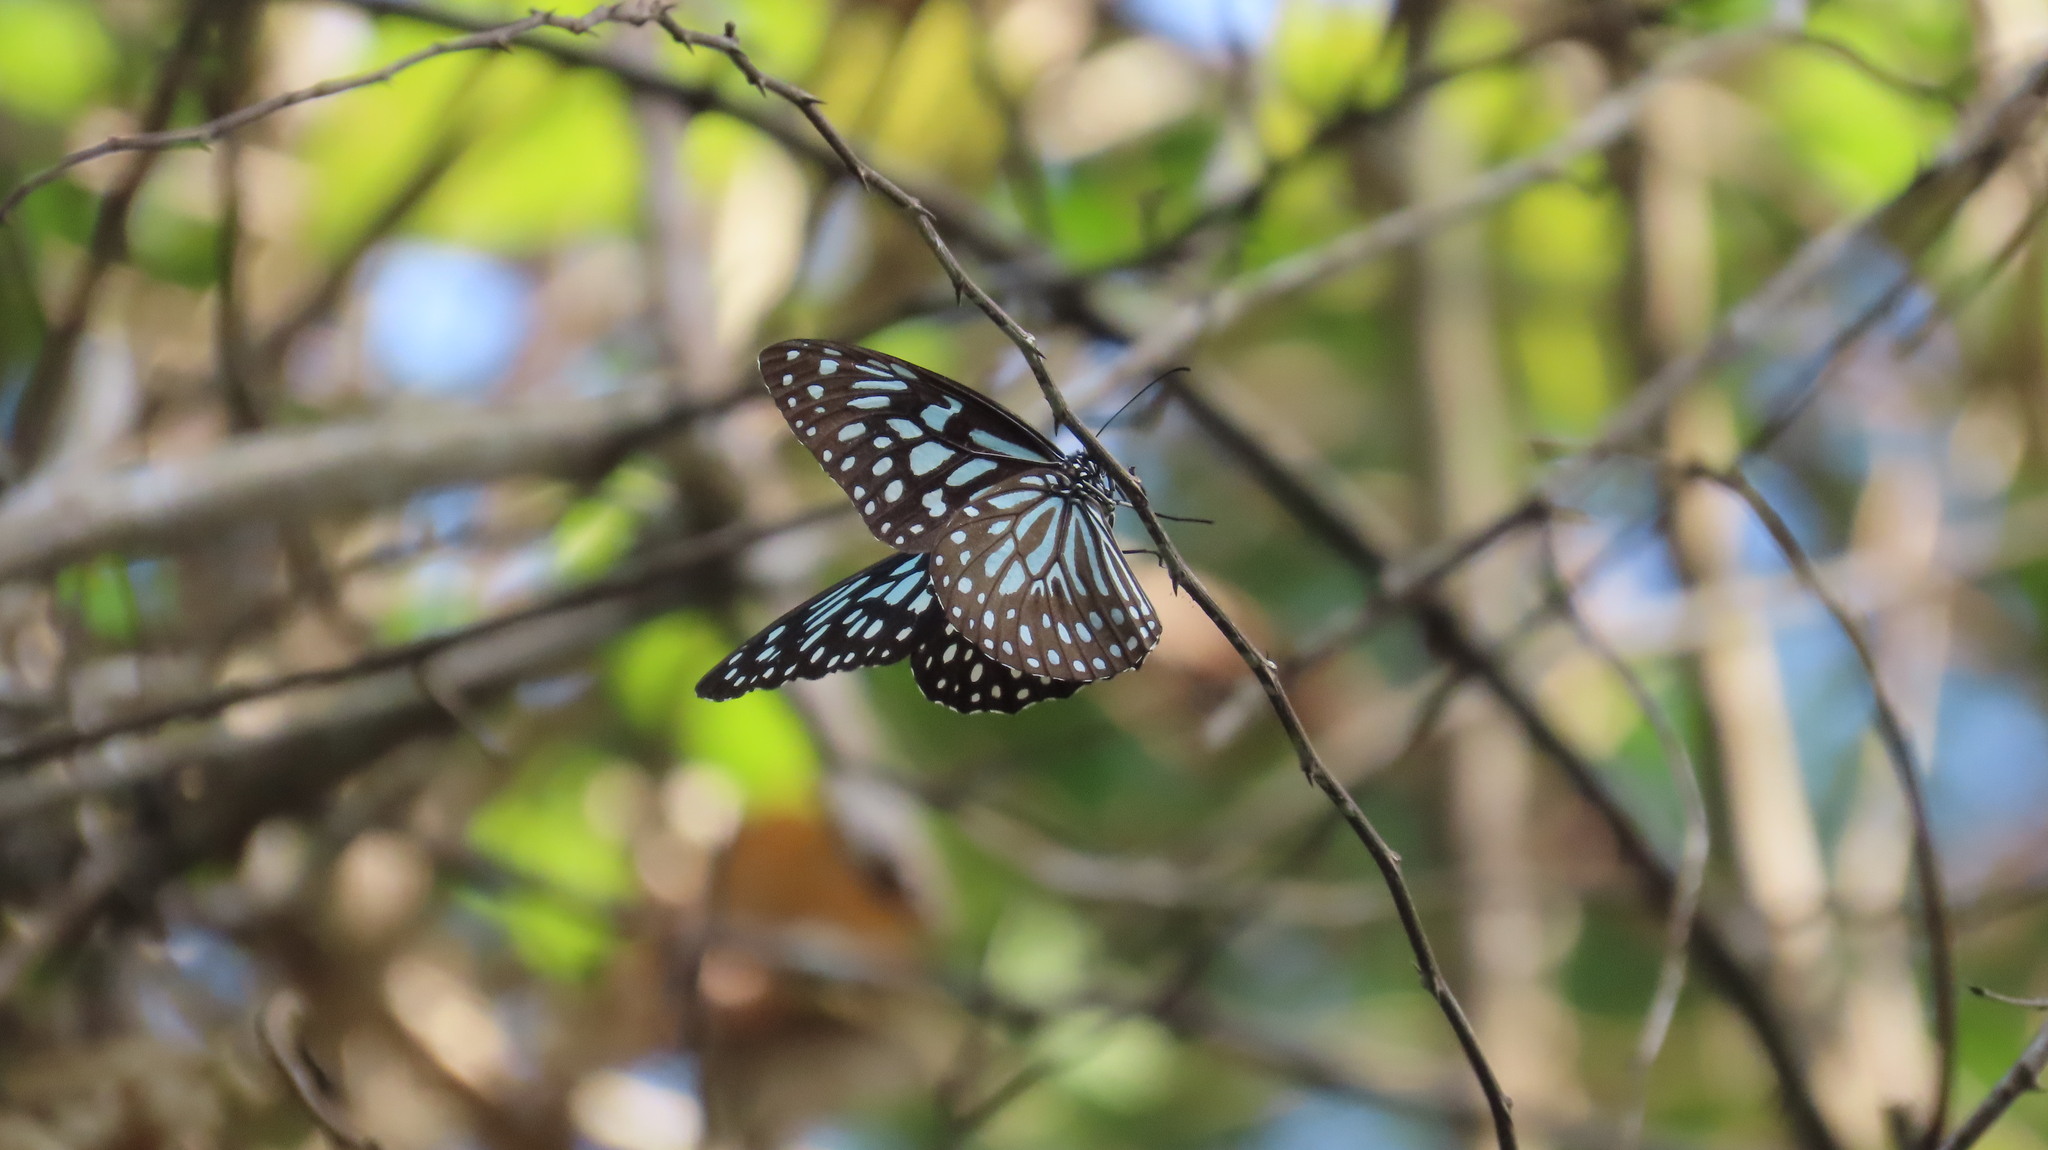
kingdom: Animalia
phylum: Arthropoda
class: Insecta
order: Lepidoptera
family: Nymphalidae
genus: Tirumala
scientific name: Tirumala septentrionis
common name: Dark blue tiger butterfly
